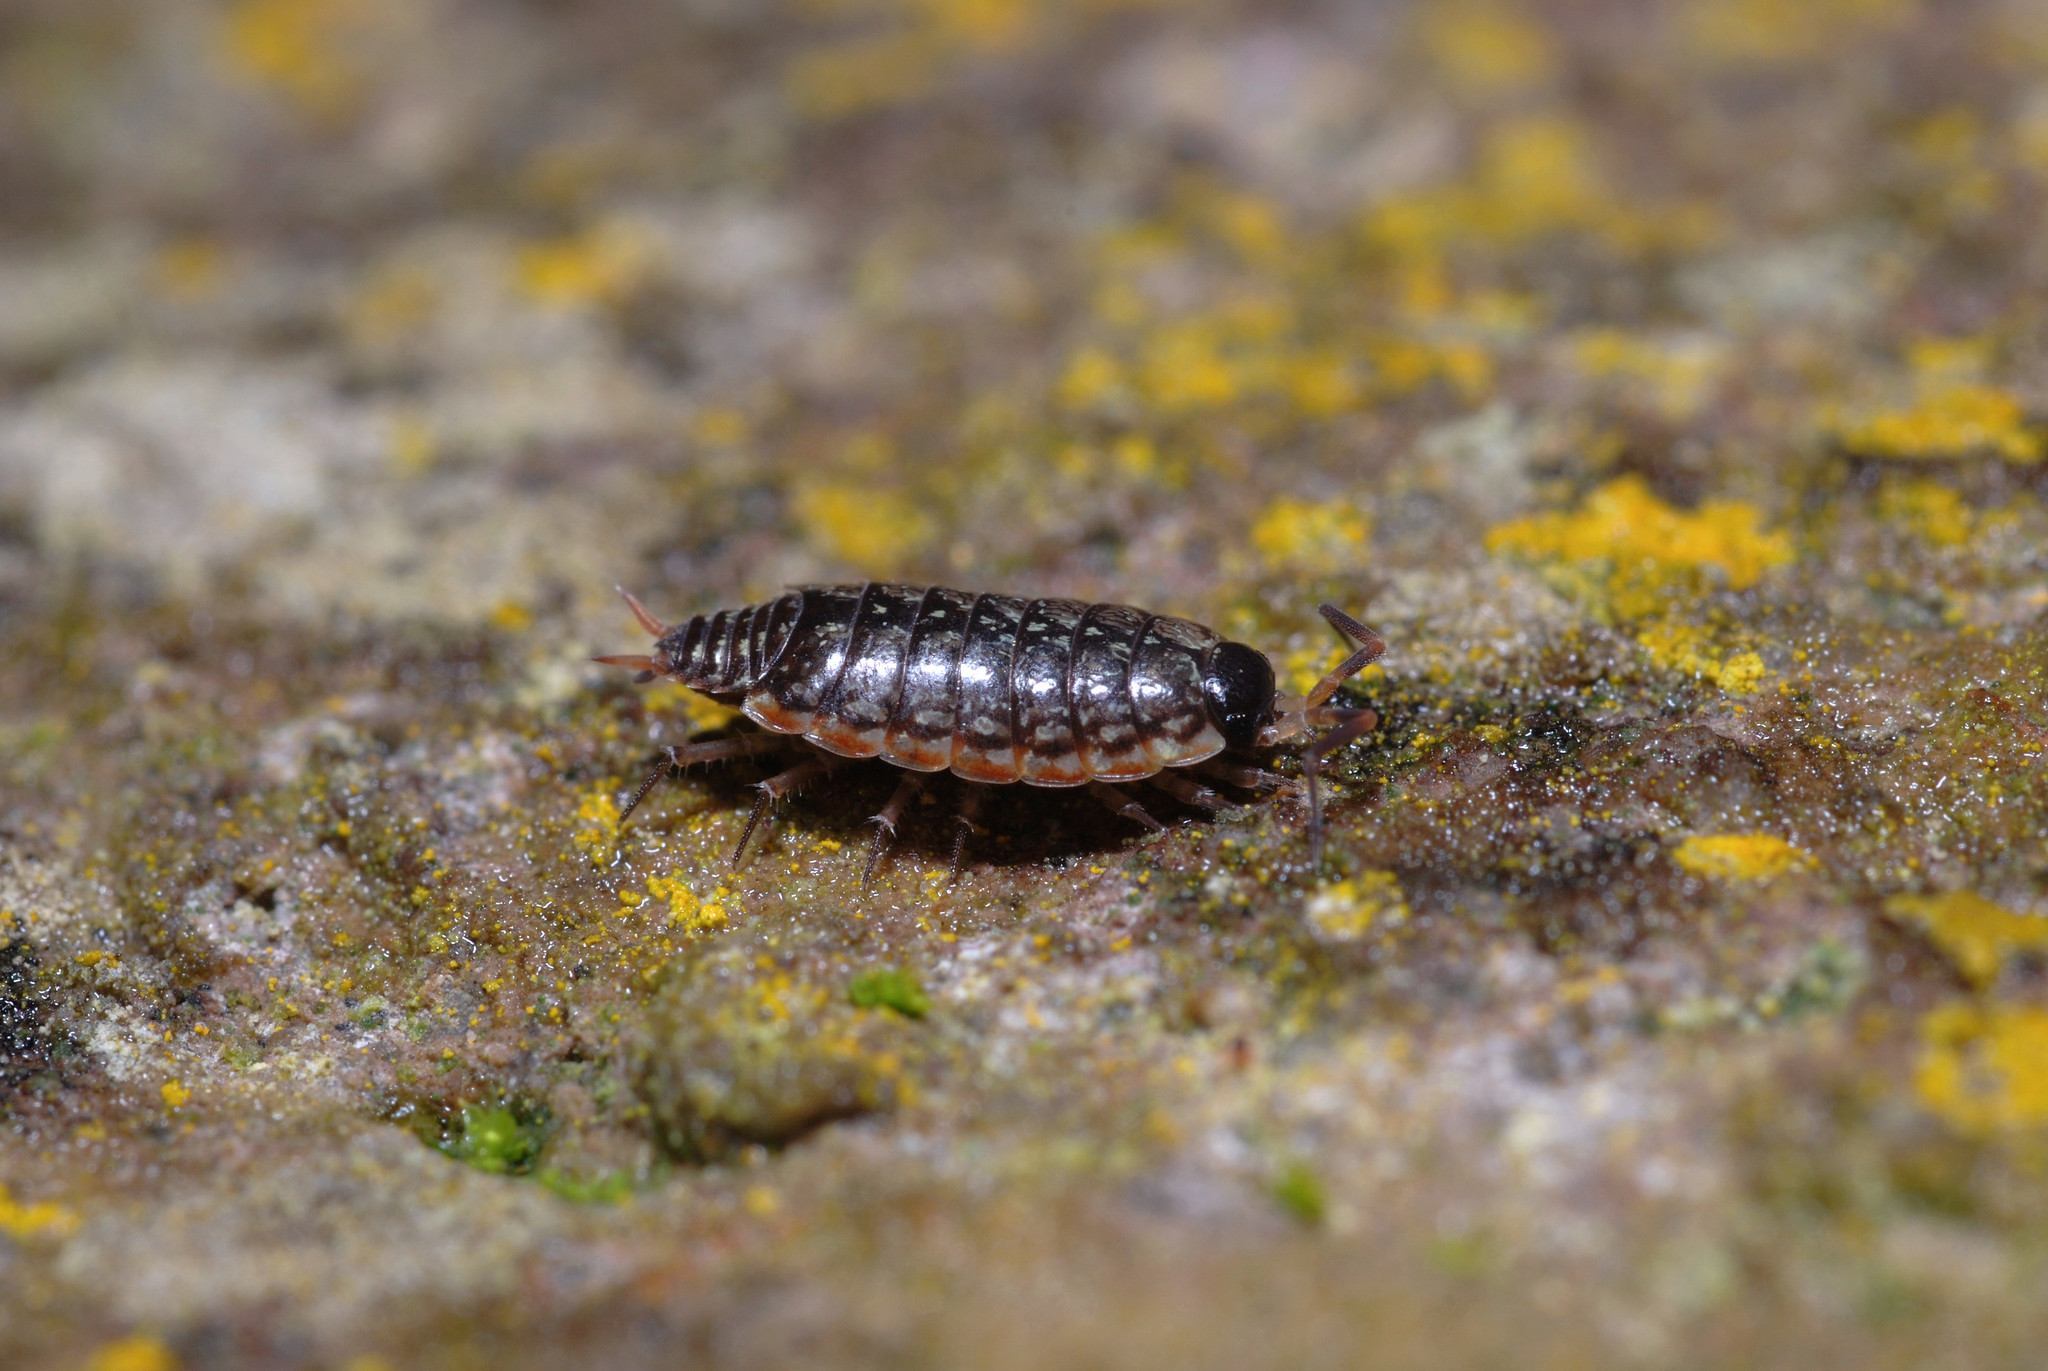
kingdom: Animalia
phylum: Arthropoda
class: Malacostraca
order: Isopoda
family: Philosciidae
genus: Philoscia
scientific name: Philoscia muscorum
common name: Common striped woodlouse
